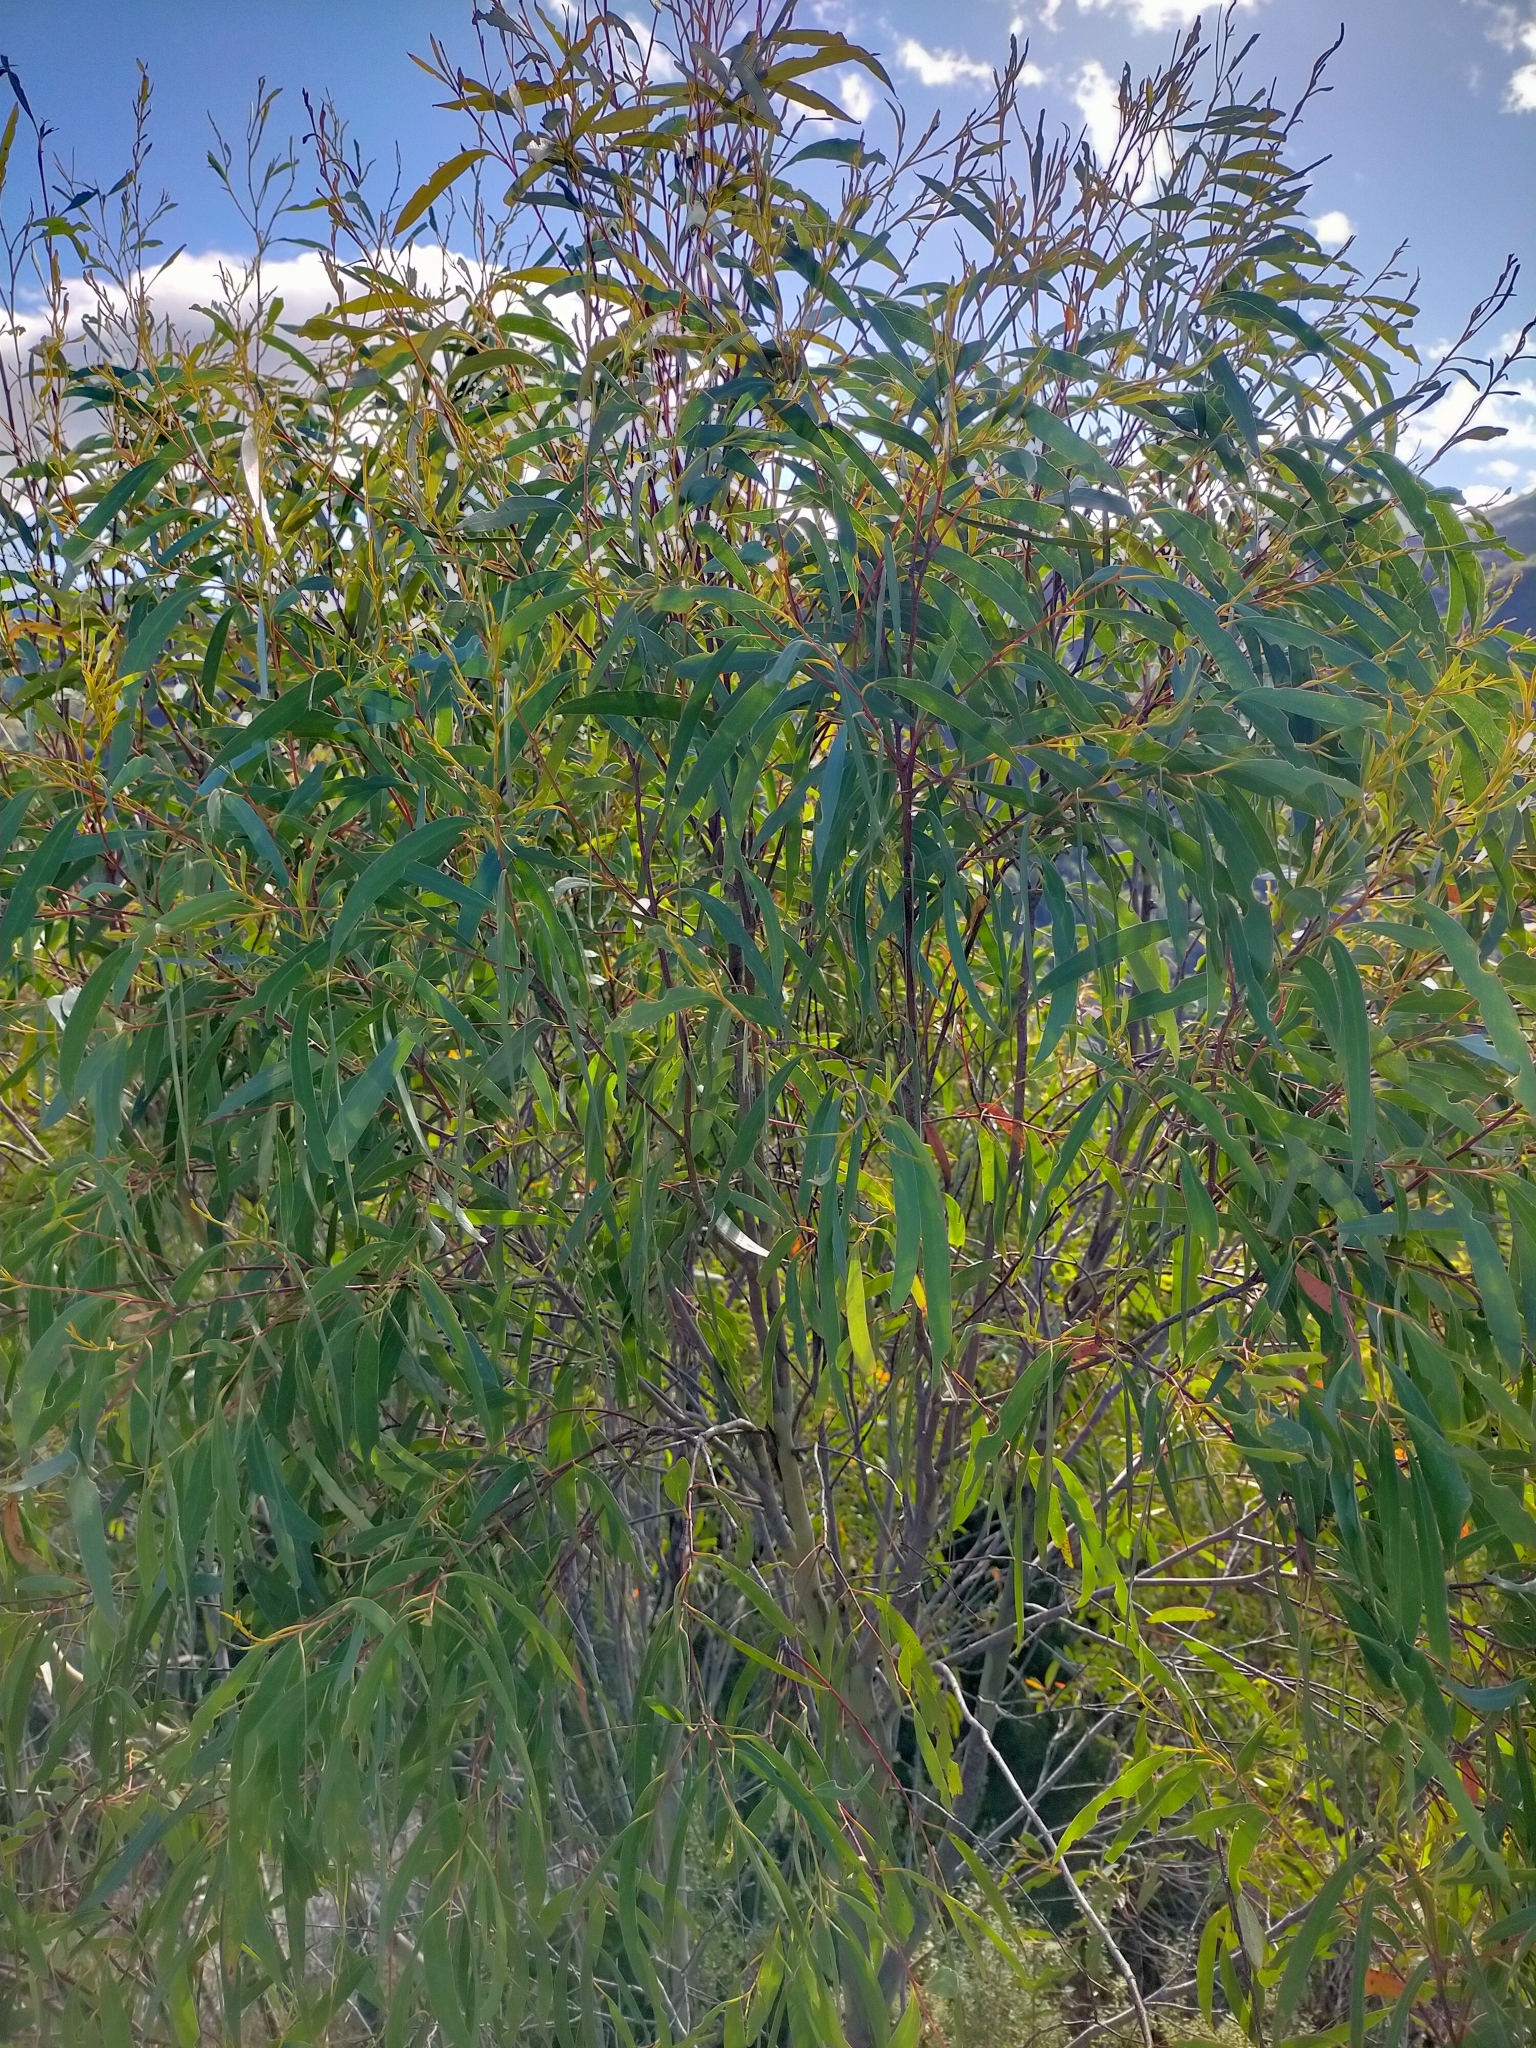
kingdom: Plantae
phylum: Tracheophyta
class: Magnoliopsida
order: Myrtales
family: Myrtaceae
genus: Eucalyptus
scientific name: Eucalyptus nitida
